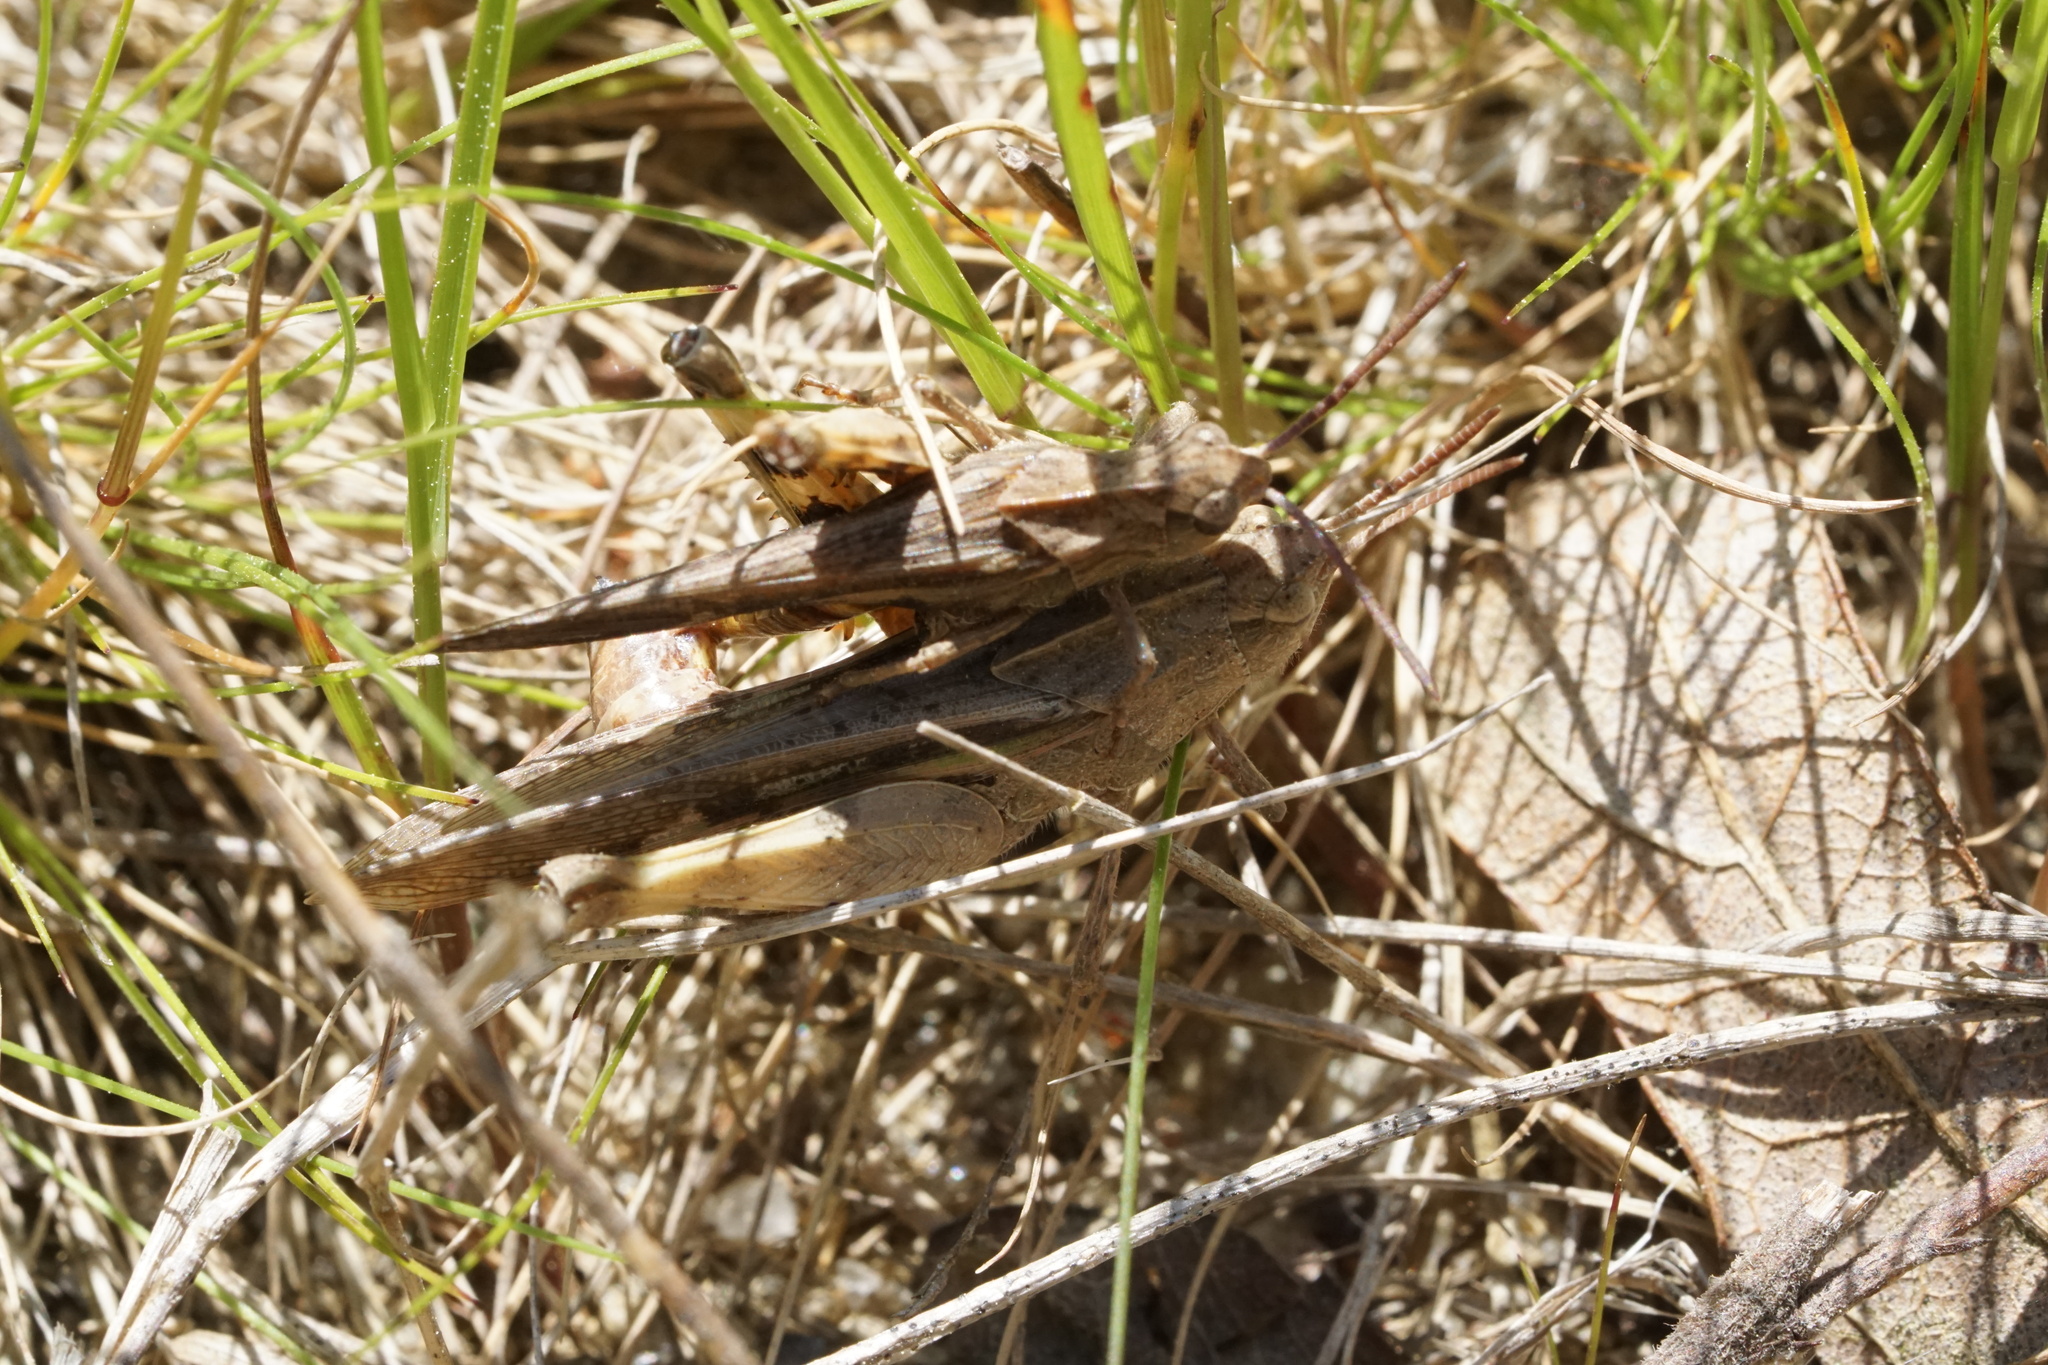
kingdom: Animalia
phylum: Arthropoda
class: Insecta
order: Orthoptera
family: Acrididae
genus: Chortophaga
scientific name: Chortophaga viridifasciata
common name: Green-striped grasshopper
